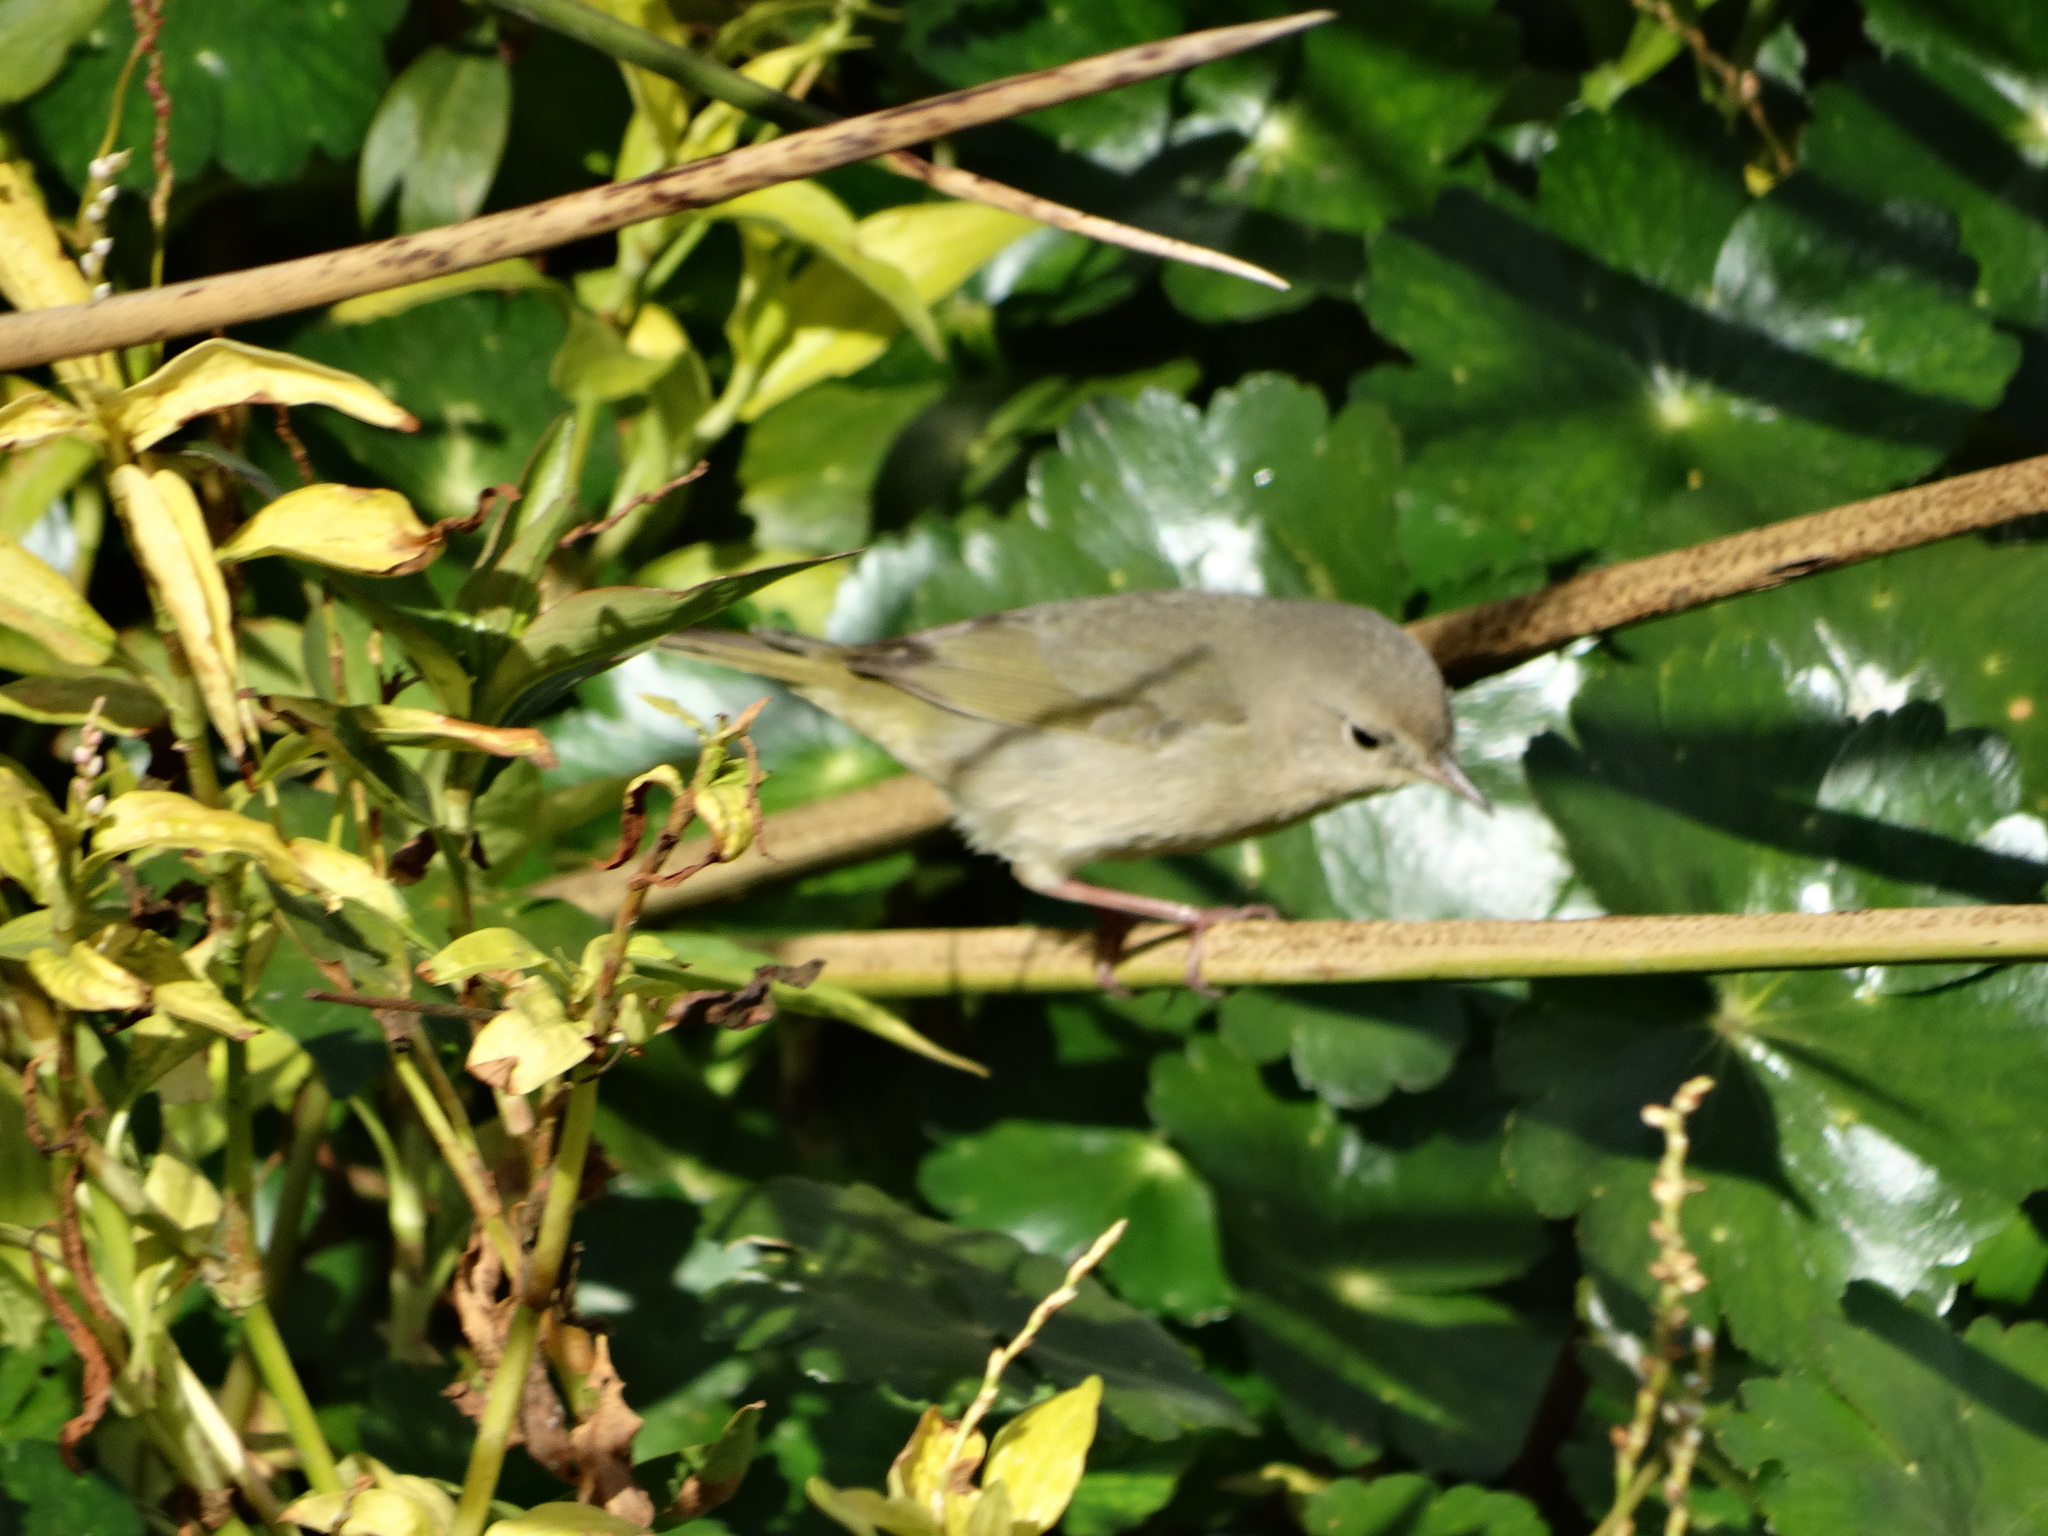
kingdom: Animalia
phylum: Chordata
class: Aves
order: Passeriformes
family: Parulidae
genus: Leiothlypis
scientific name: Leiothlypis celata
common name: Orange-crowned warbler
